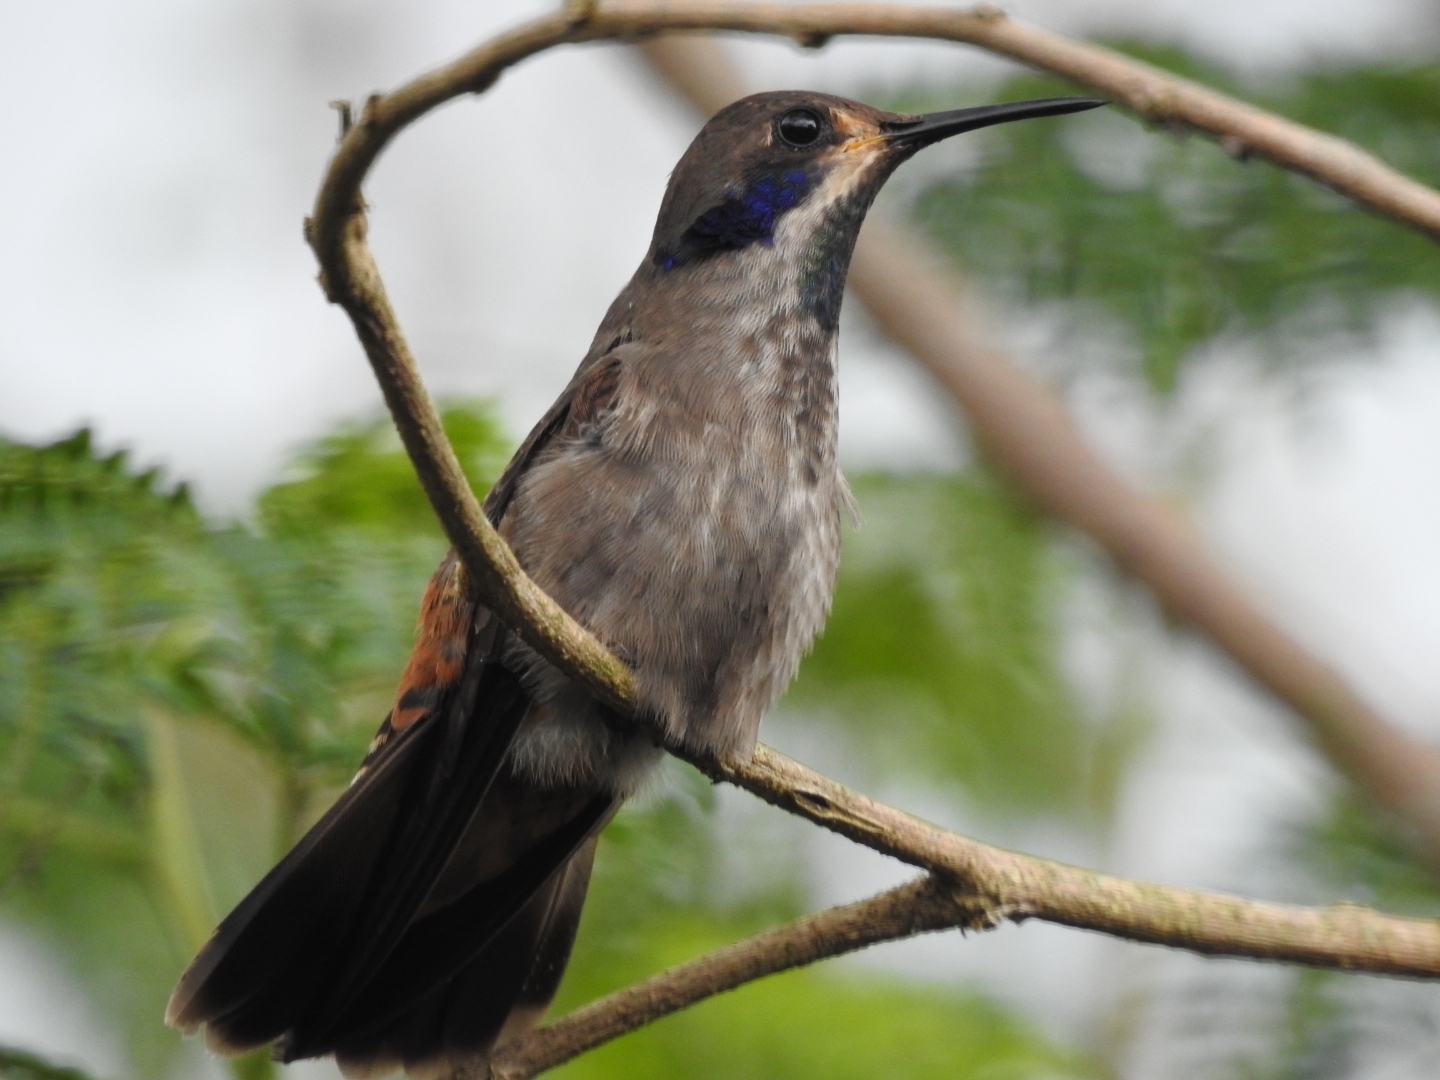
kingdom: Animalia
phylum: Chordata
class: Aves
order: Apodiformes
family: Trochilidae
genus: Colibri
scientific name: Colibri delphinae
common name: Brown violetear
